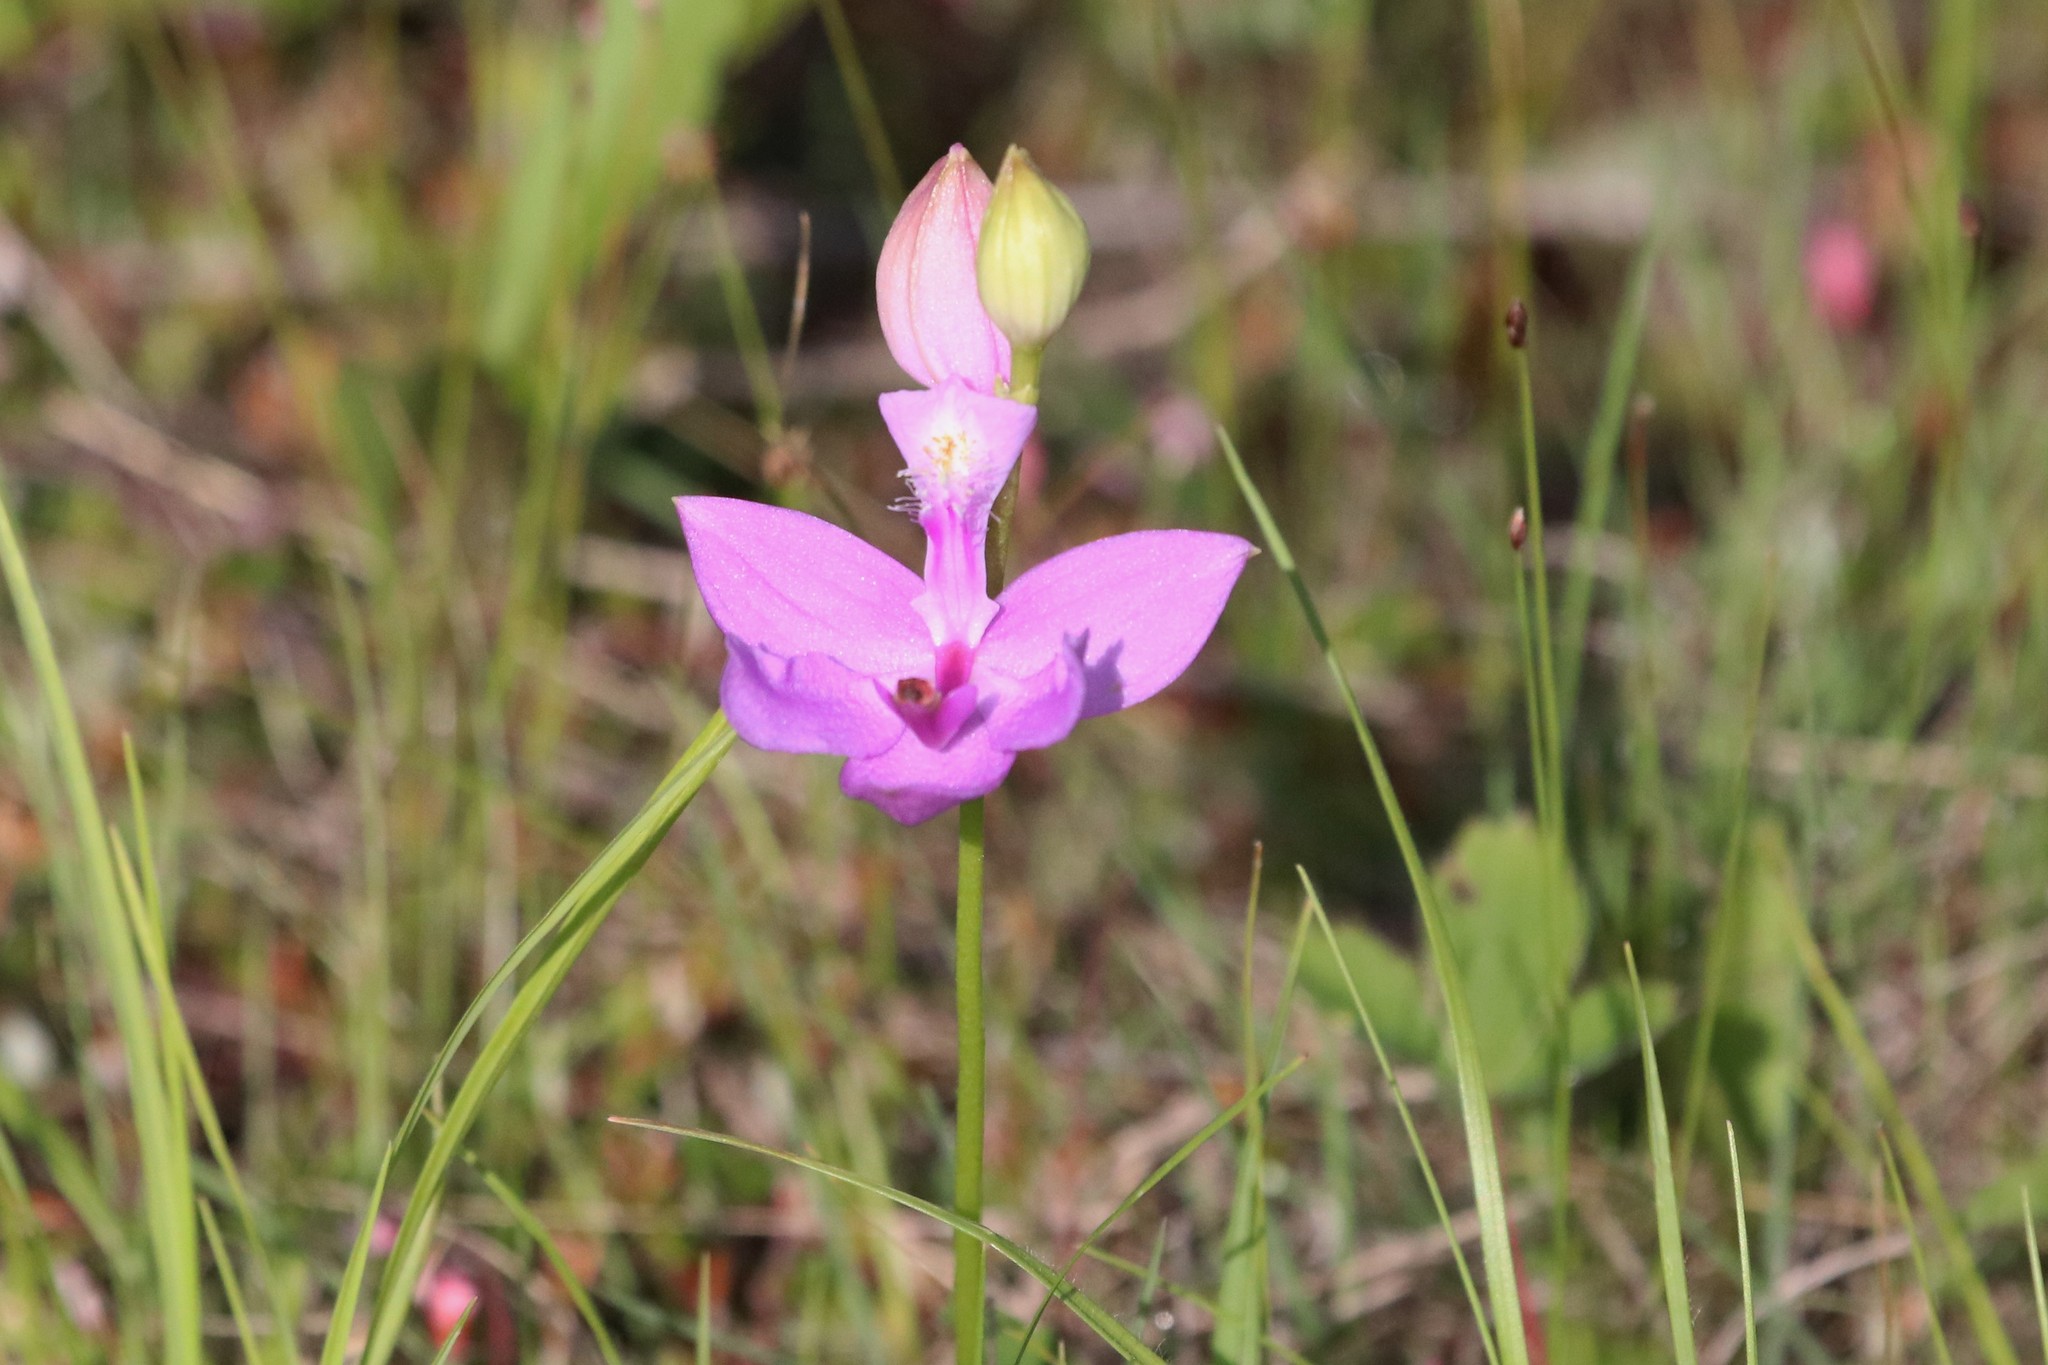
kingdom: Plantae
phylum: Tracheophyta
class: Liliopsida
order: Asparagales
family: Orchidaceae
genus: Calopogon
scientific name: Calopogon tuberosus
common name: Grass-pink
